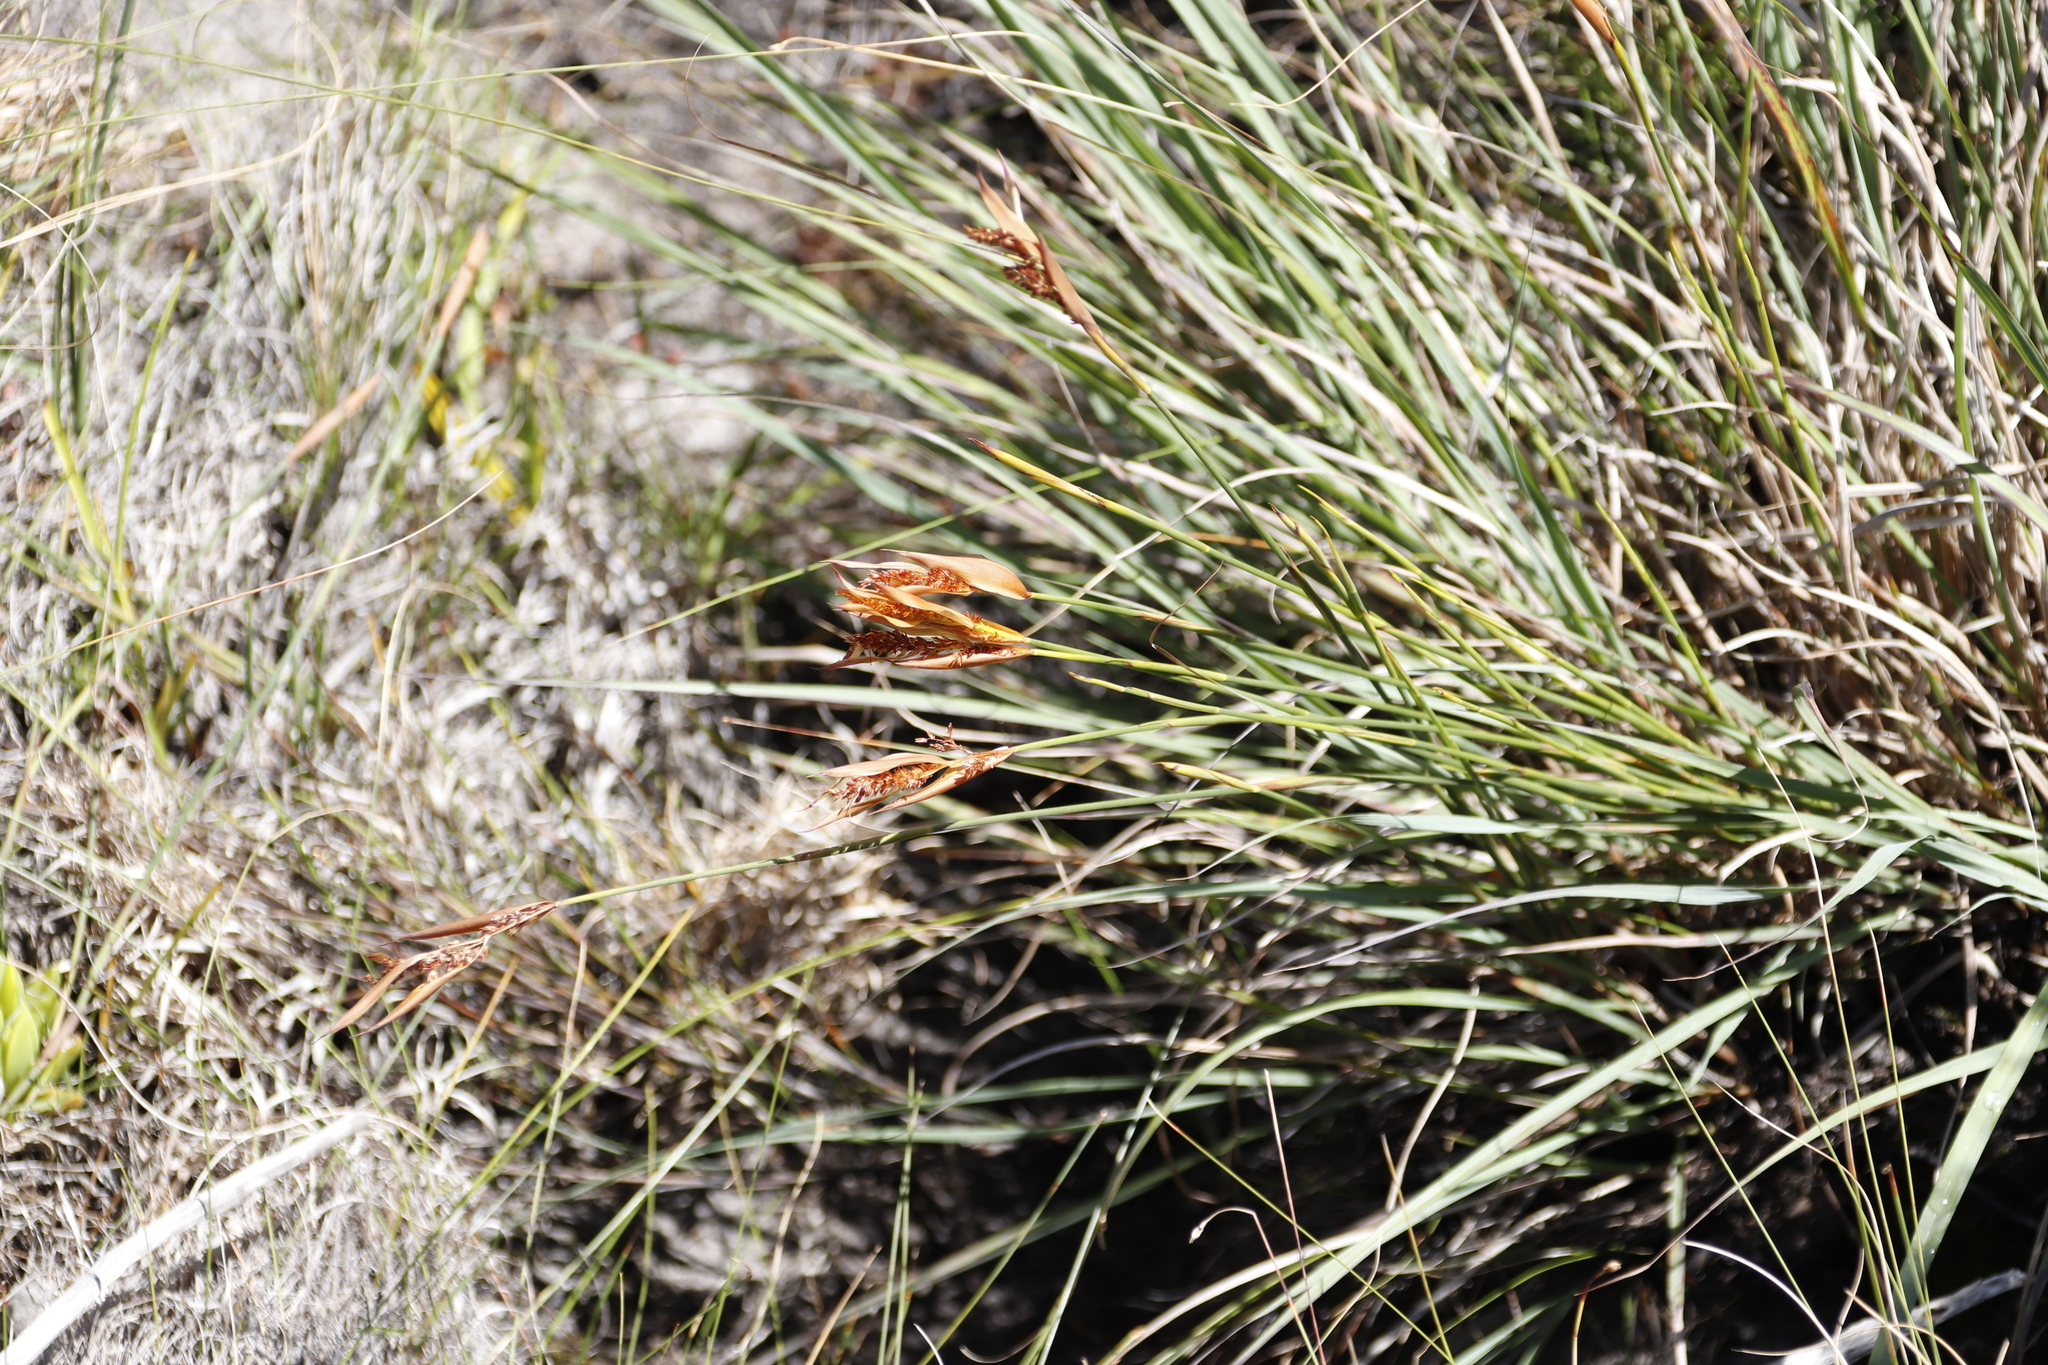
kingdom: Plantae
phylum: Tracheophyta
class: Liliopsida
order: Poales
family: Restionaceae
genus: Elegia
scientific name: Elegia neesii
